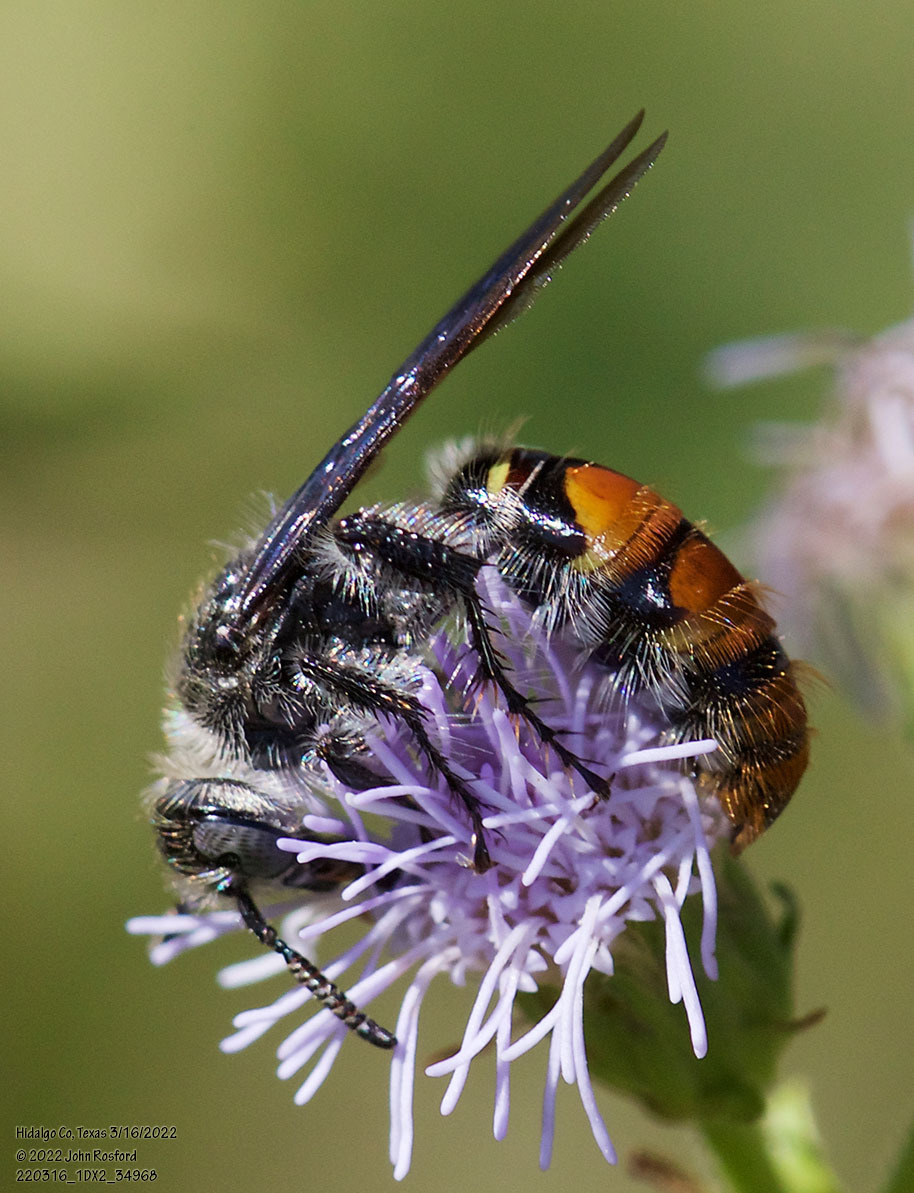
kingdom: Animalia
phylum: Arthropoda
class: Insecta
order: Hymenoptera
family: Scoliidae
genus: Dielis
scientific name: Dielis tolteca
